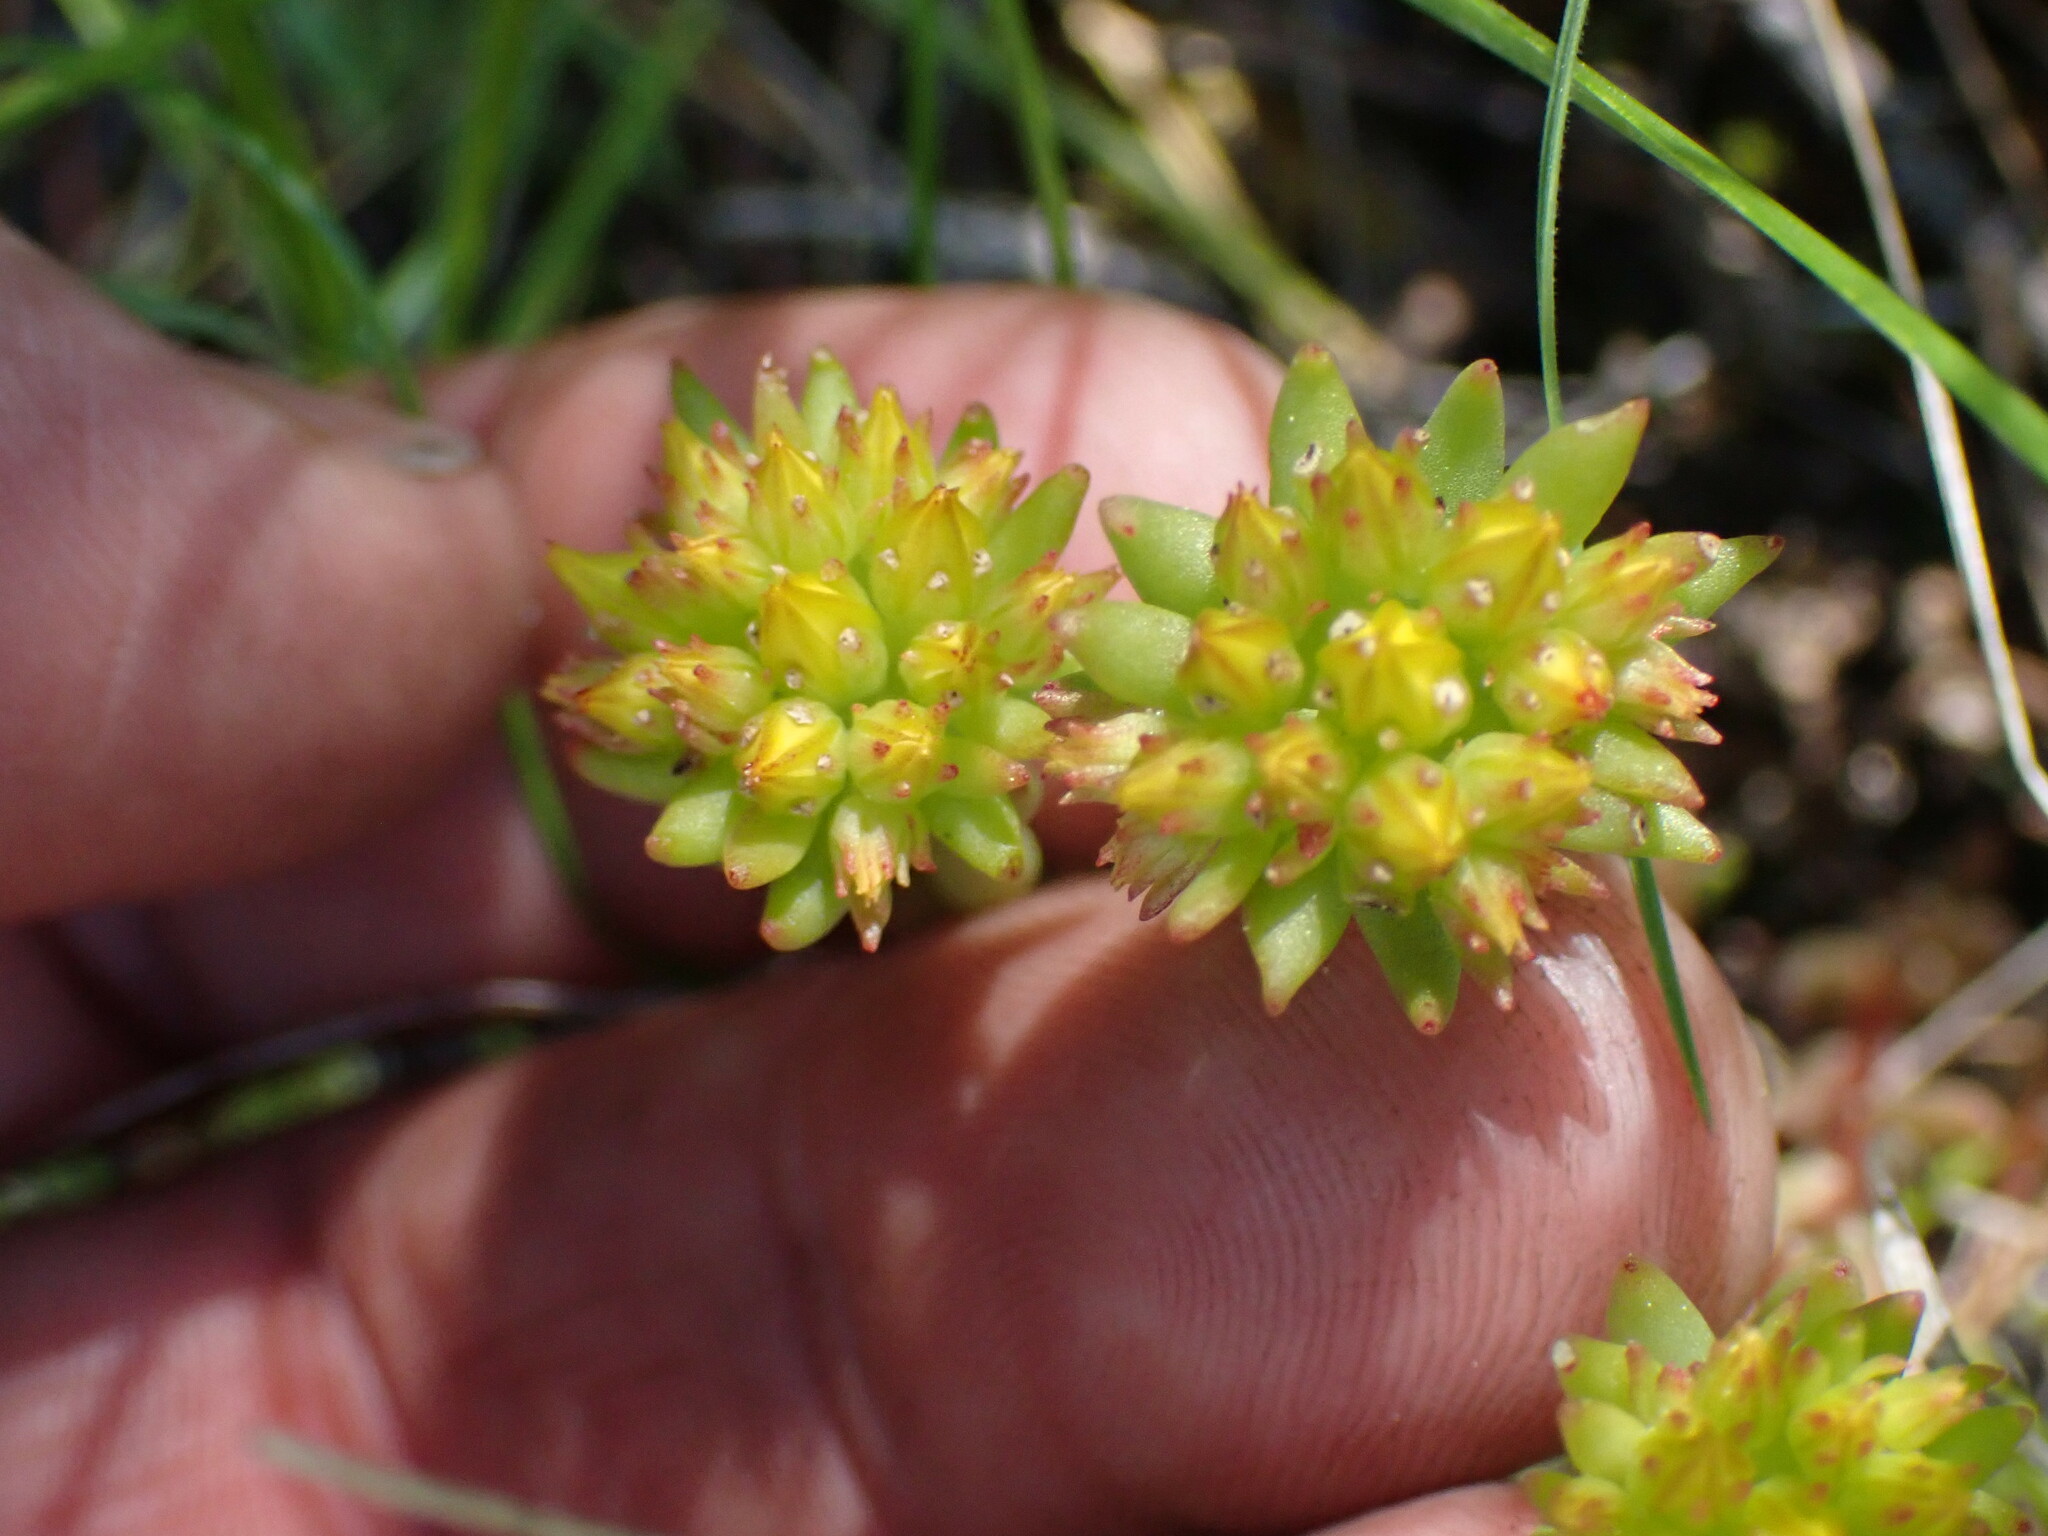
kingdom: Plantae
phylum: Tracheophyta
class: Magnoliopsida
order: Saxifragales
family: Crassulaceae
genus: Sedum
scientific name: Sedum lanceolatum
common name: Common stonecrop
